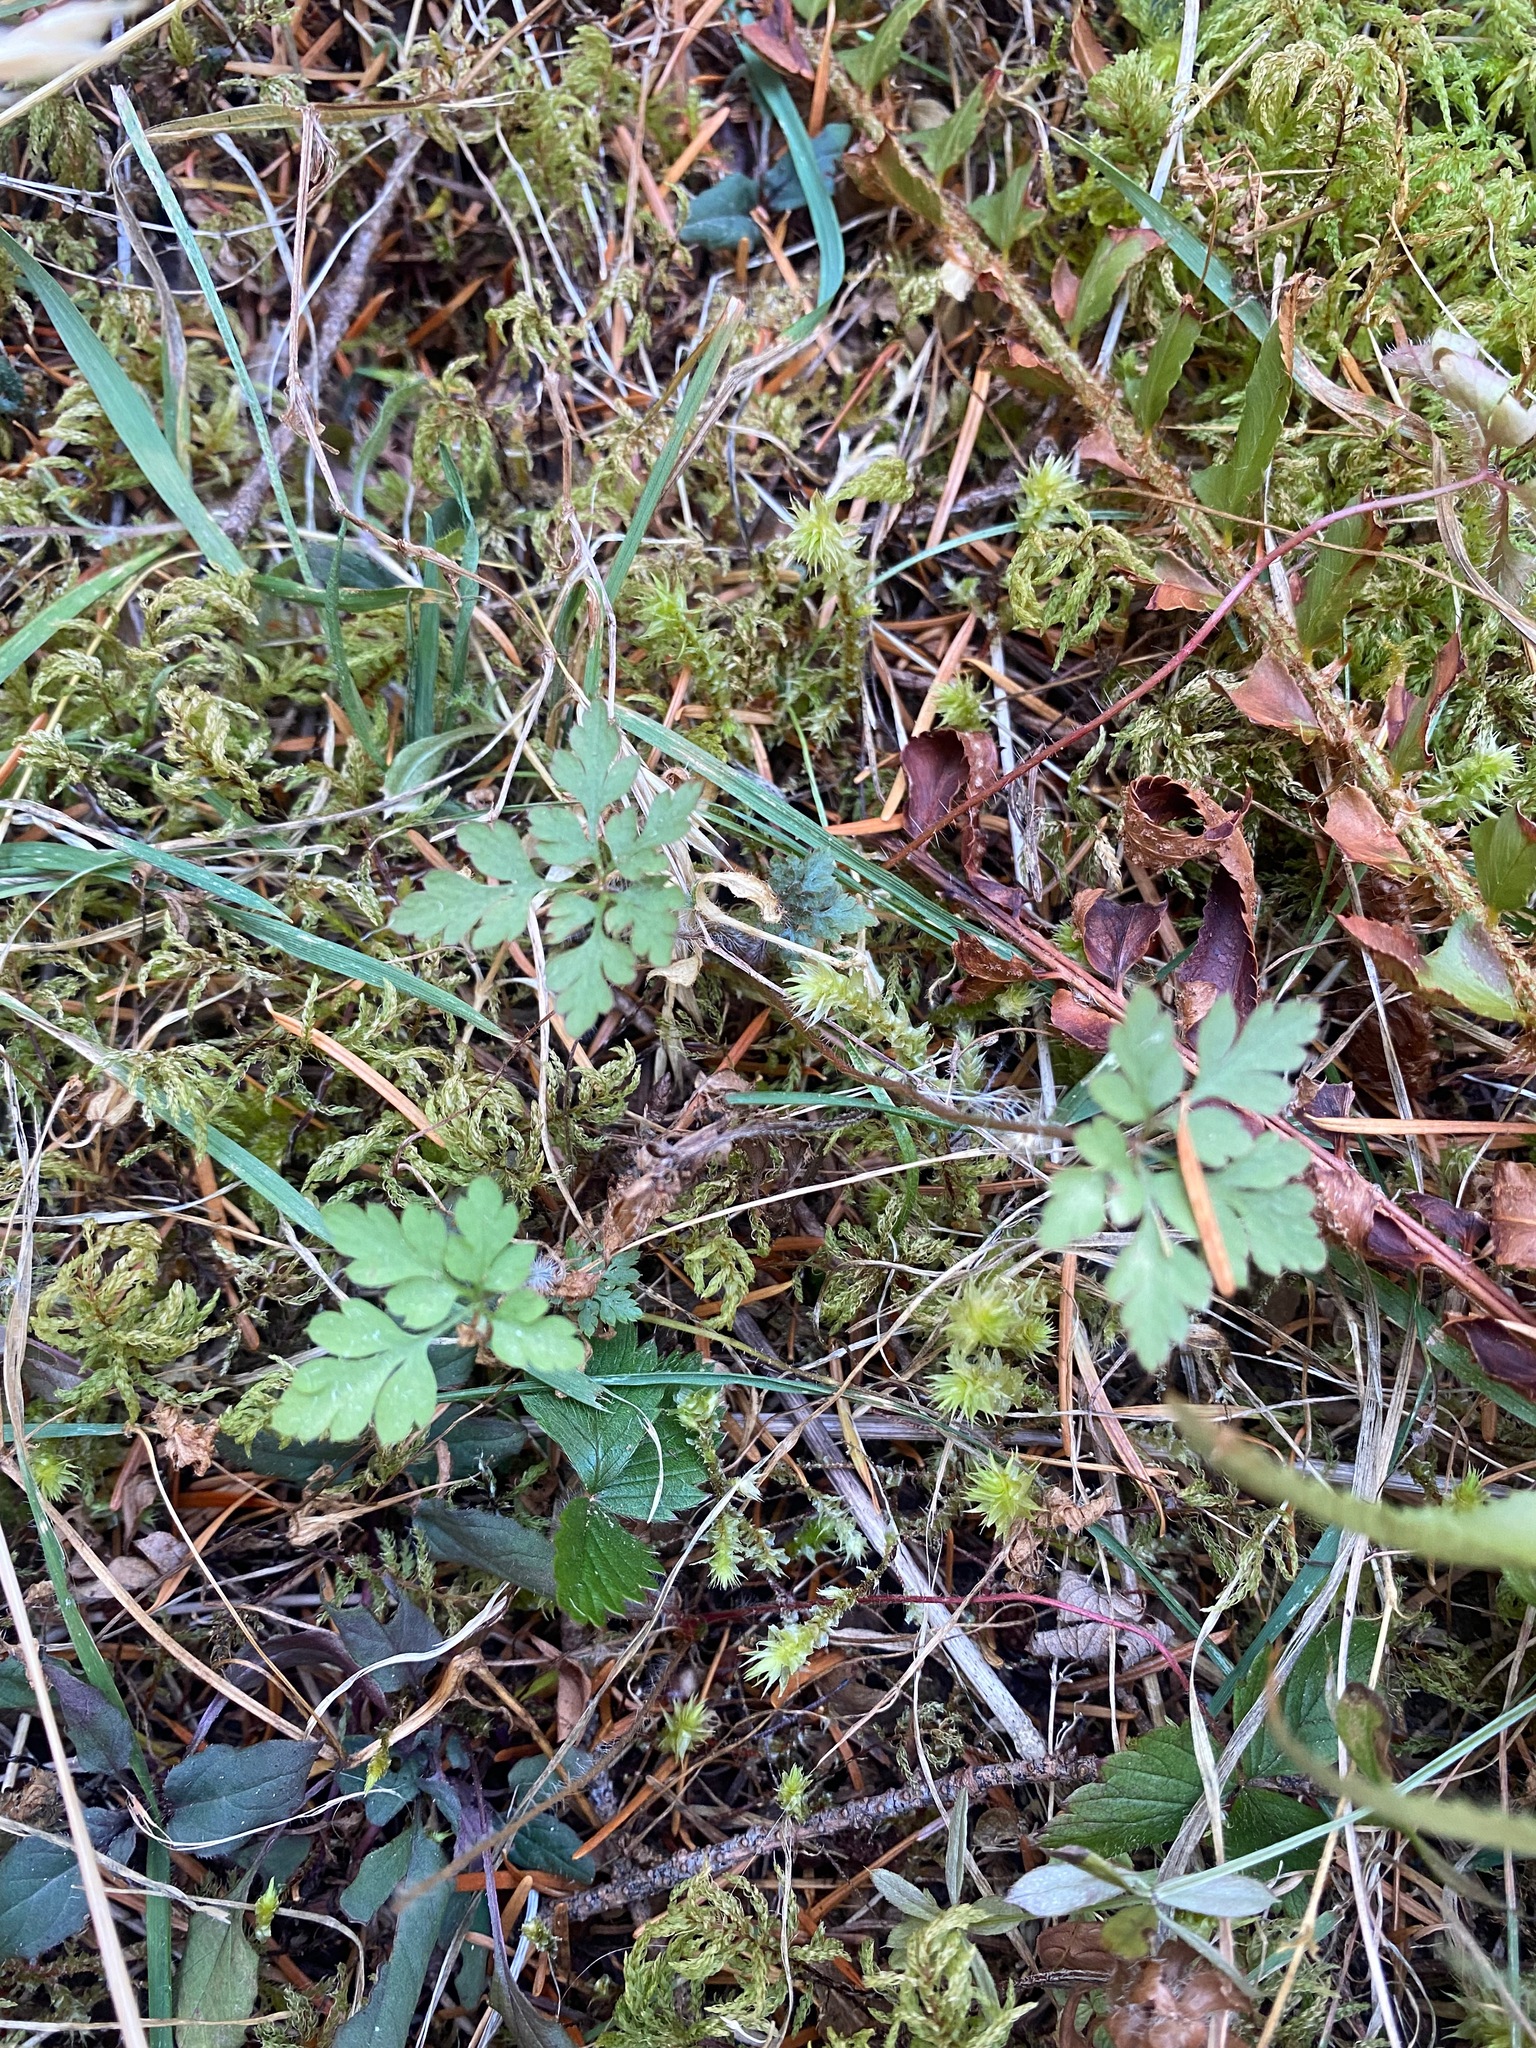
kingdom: Plantae
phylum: Tracheophyta
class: Magnoliopsida
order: Geraniales
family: Geraniaceae
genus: Geranium
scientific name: Geranium robertianum
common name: Herb-robert
